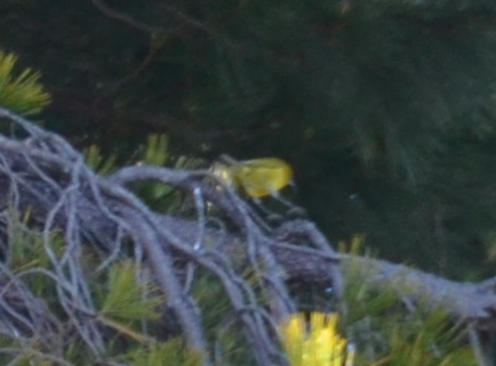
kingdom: Animalia
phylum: Chordata
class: Aves
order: Passeriformes
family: Fringillidae
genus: Chlorodrepanis
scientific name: Chlorodrepanis virens
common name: Hawaii amakihi
